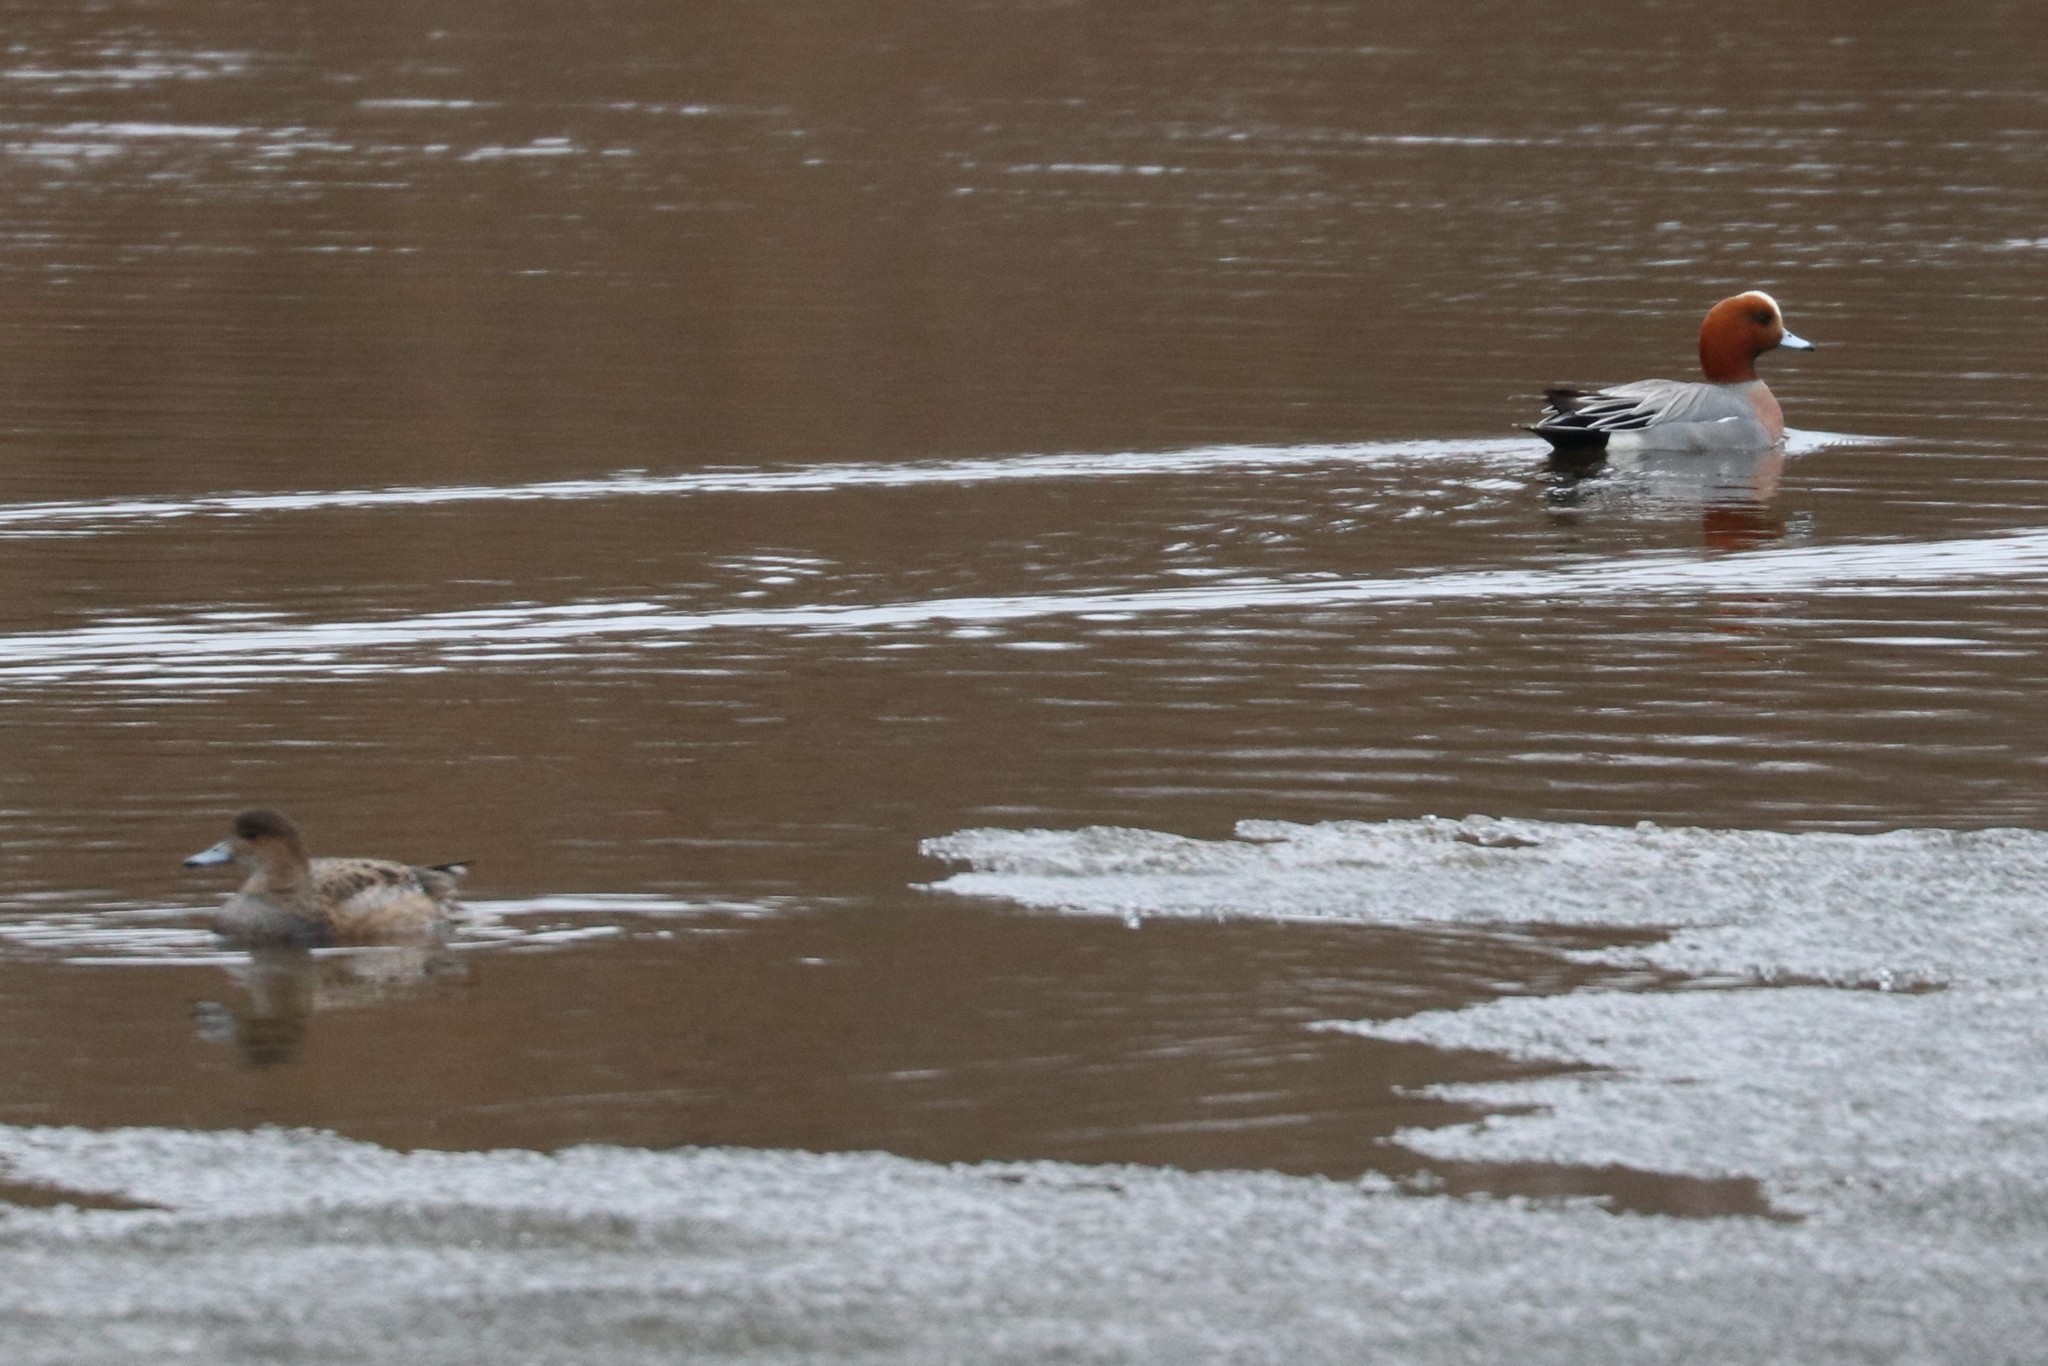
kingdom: Animalia
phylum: Chordata
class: Aves
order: Anseriformes
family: Anatidae
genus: Mareca
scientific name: Mareca penelope
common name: Eurasian wigeon
